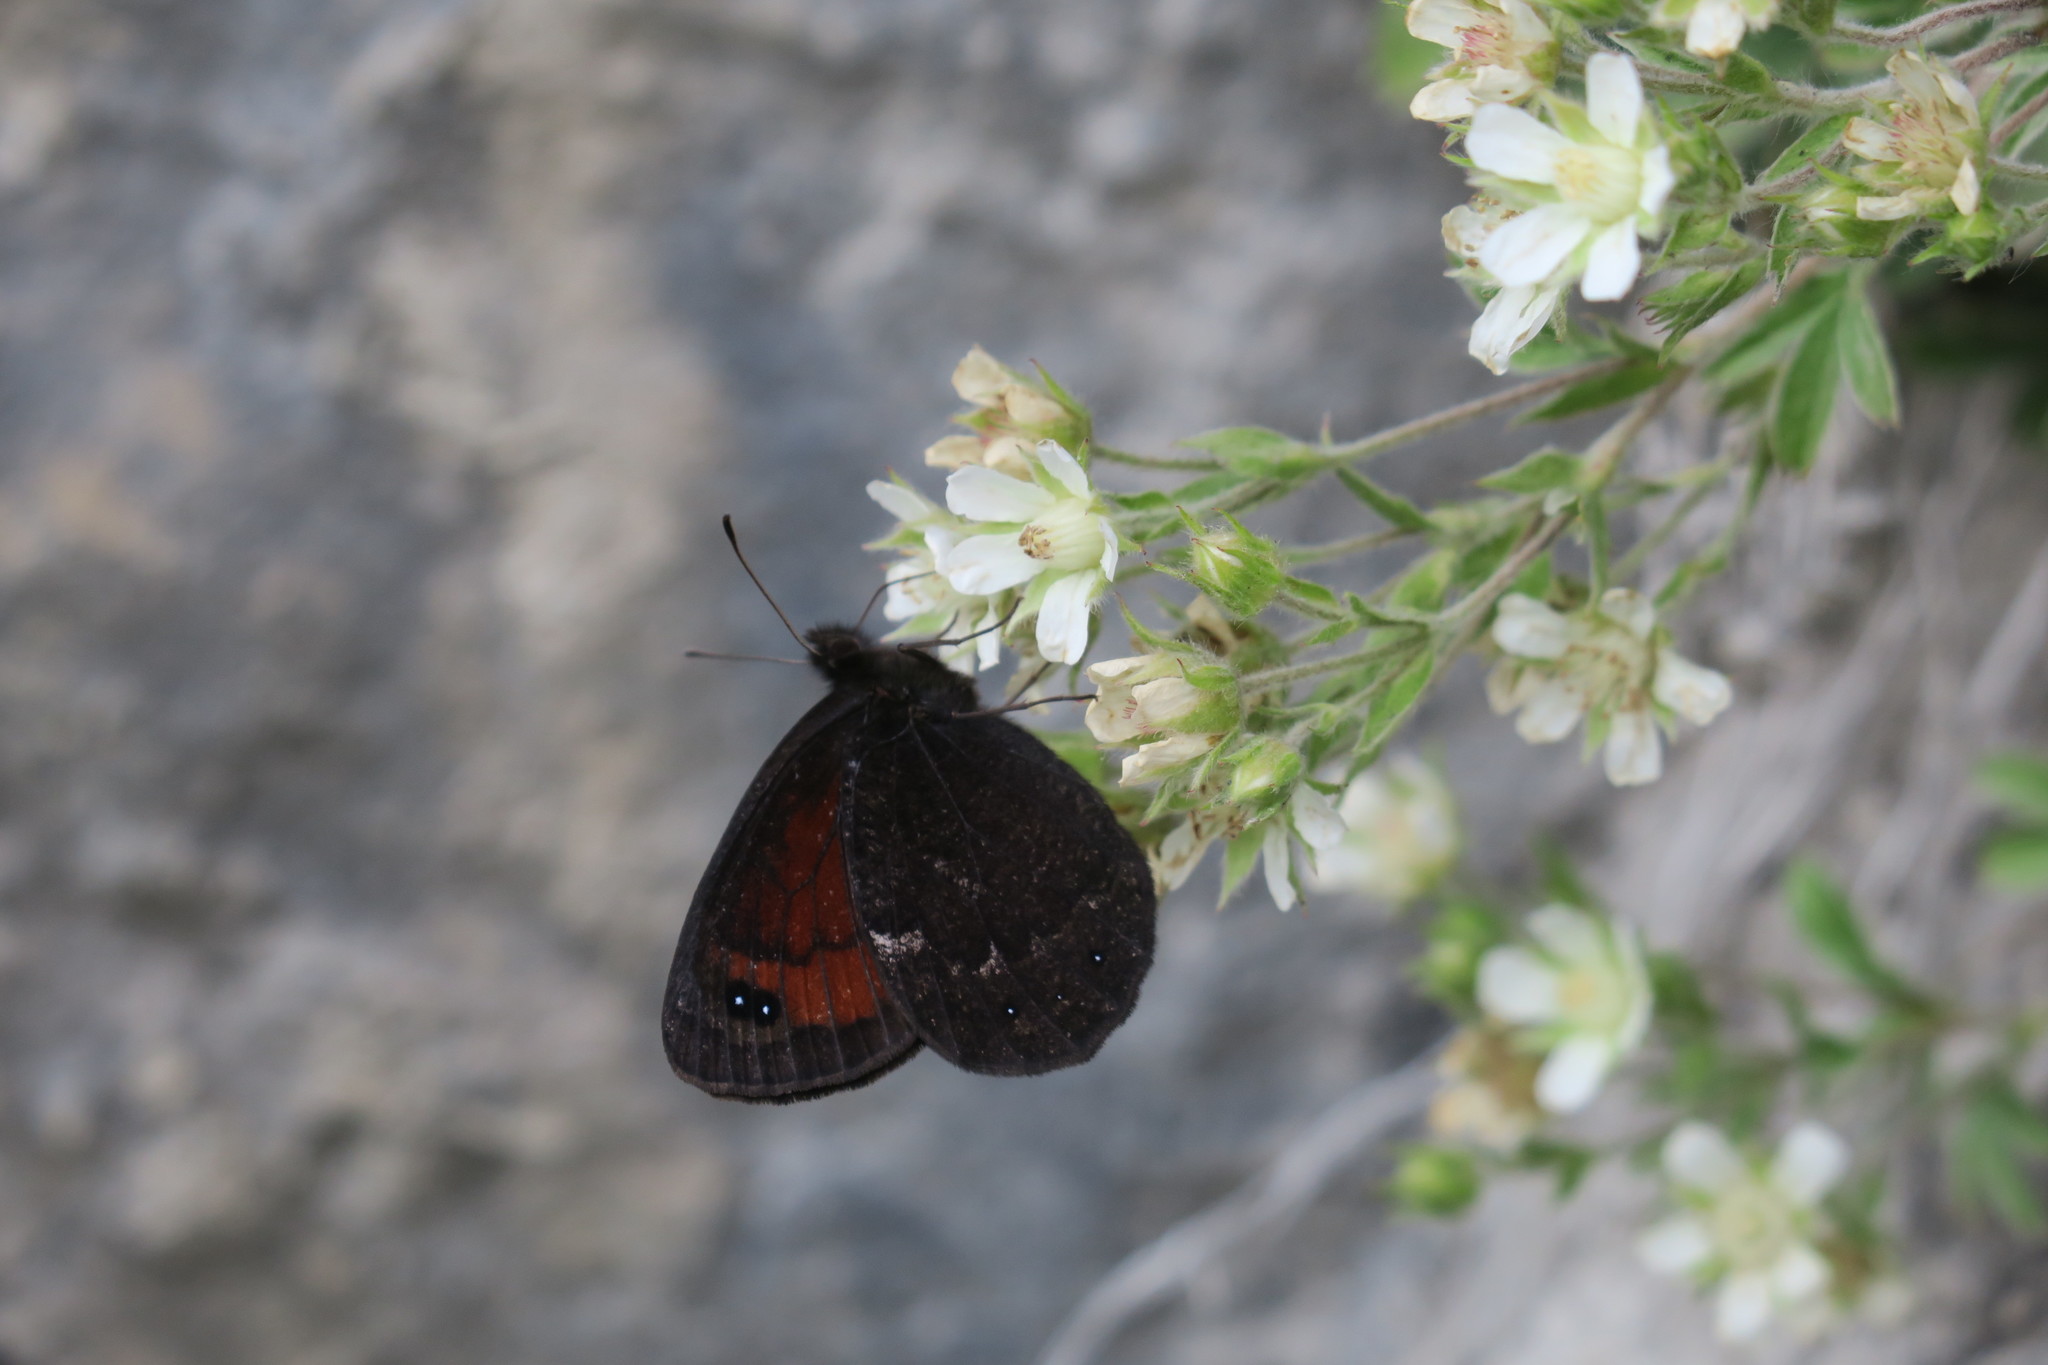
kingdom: Animalia
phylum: Arthropoda
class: Insecta
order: Lepidoptera
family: Nymphalidae
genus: Callerebia
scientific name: Callerebia mani
